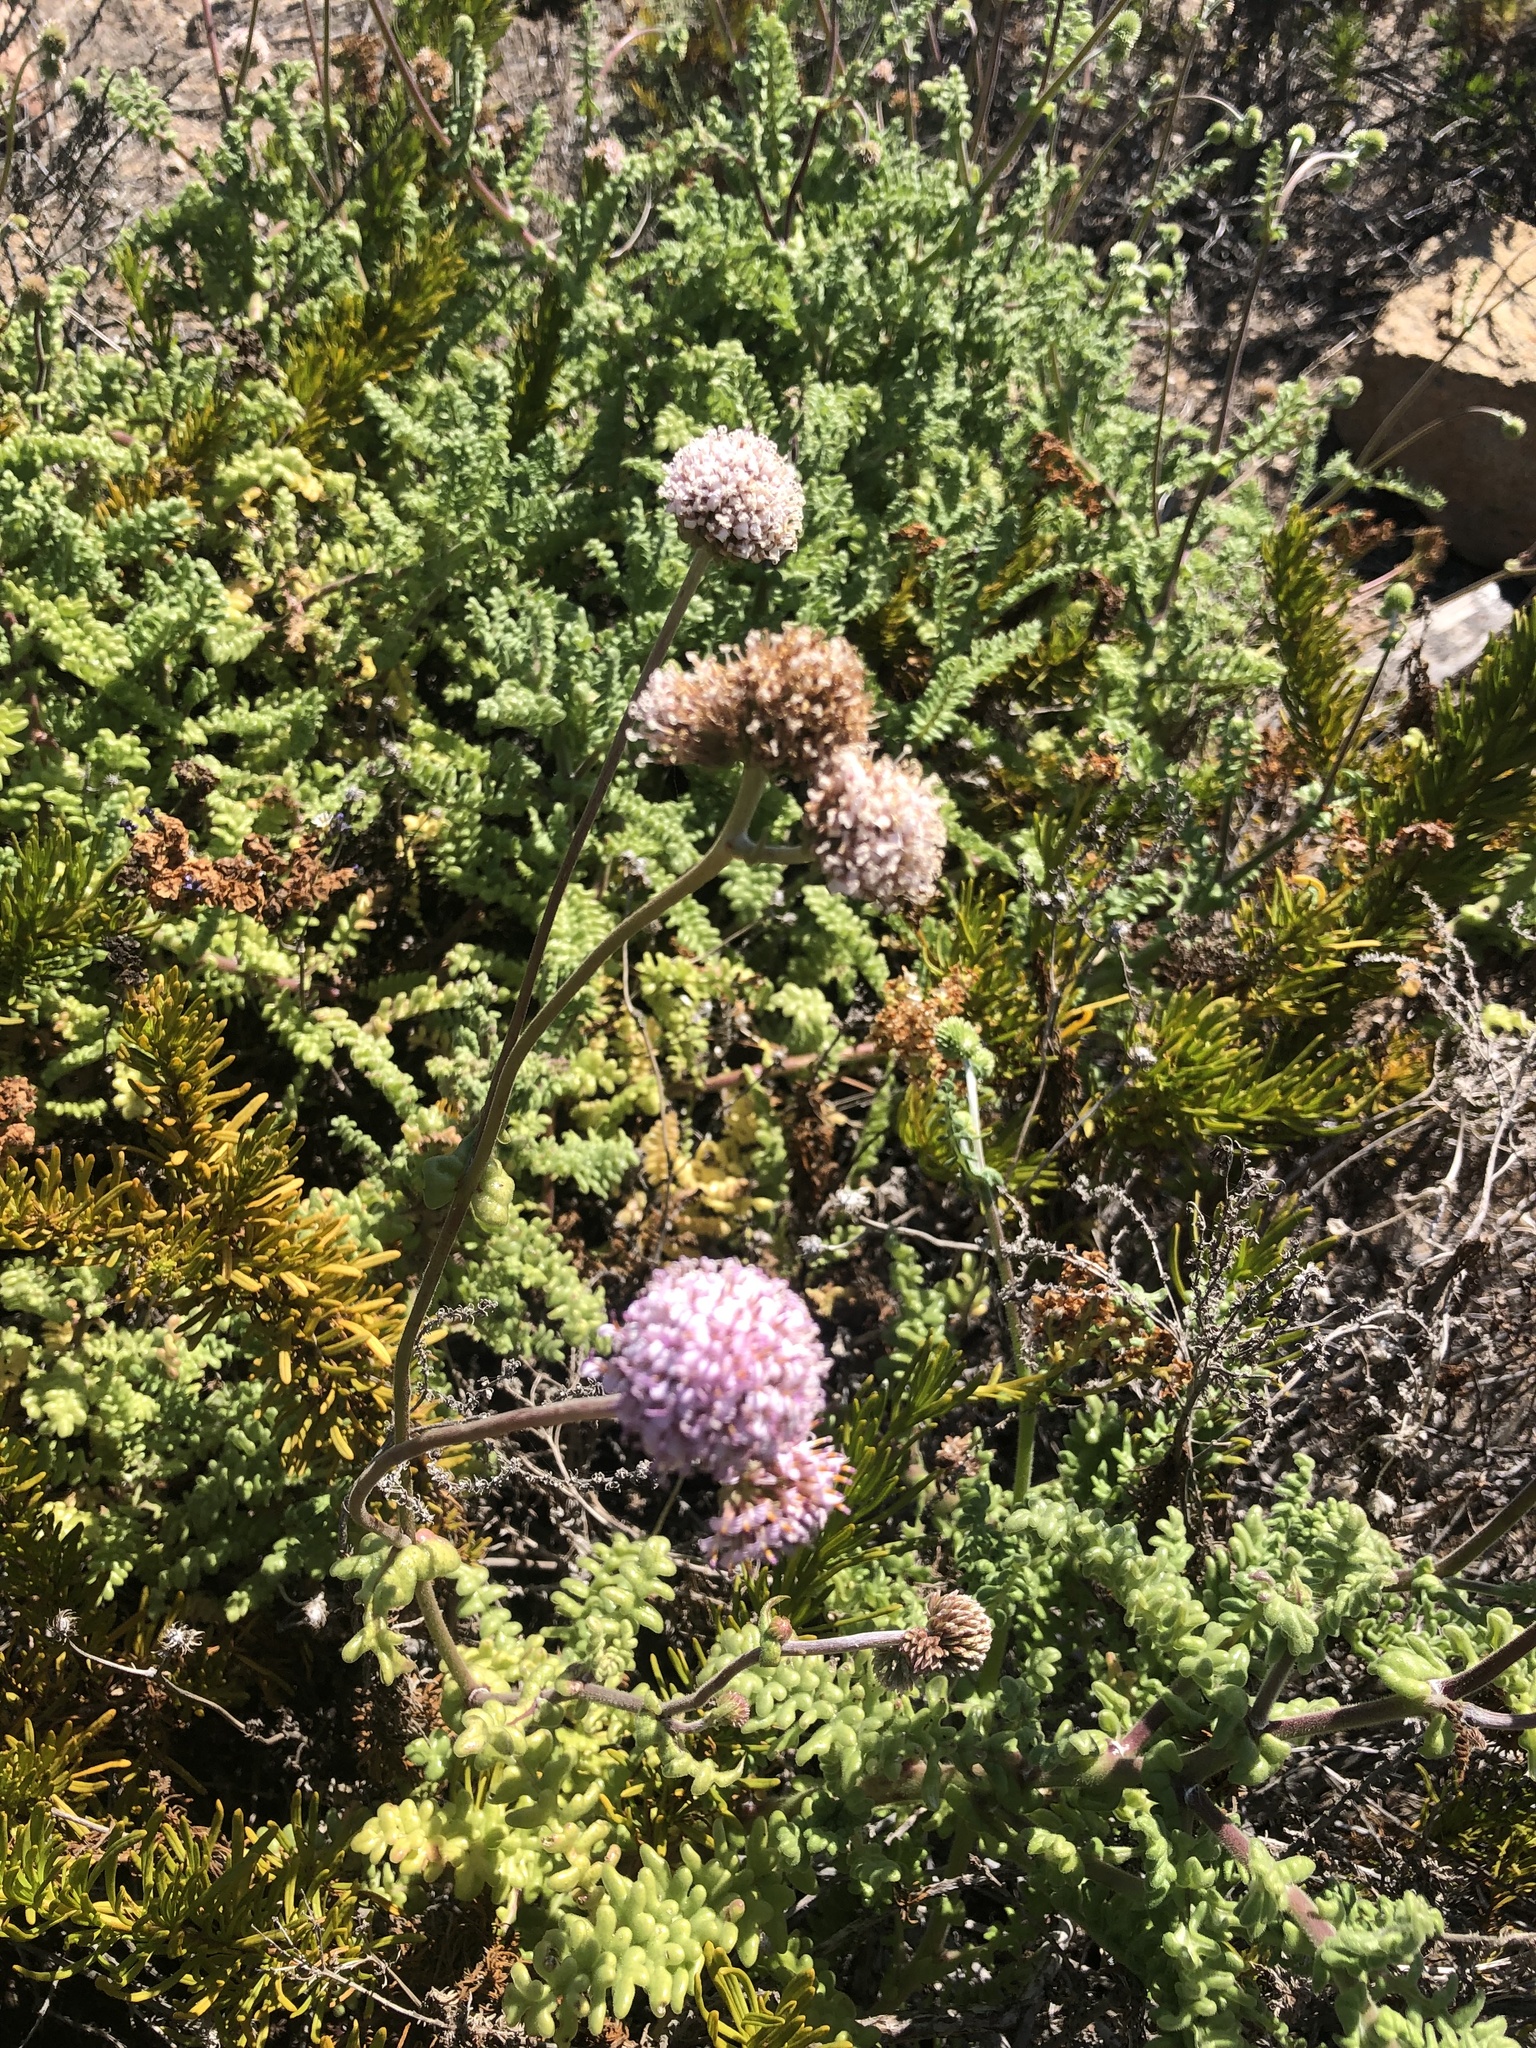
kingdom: Plantae
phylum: Tracheophyta
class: Magnoliopsida
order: Asterales
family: Asteraceae
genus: Polyachyrus
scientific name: Polyachyrus poeppigii
